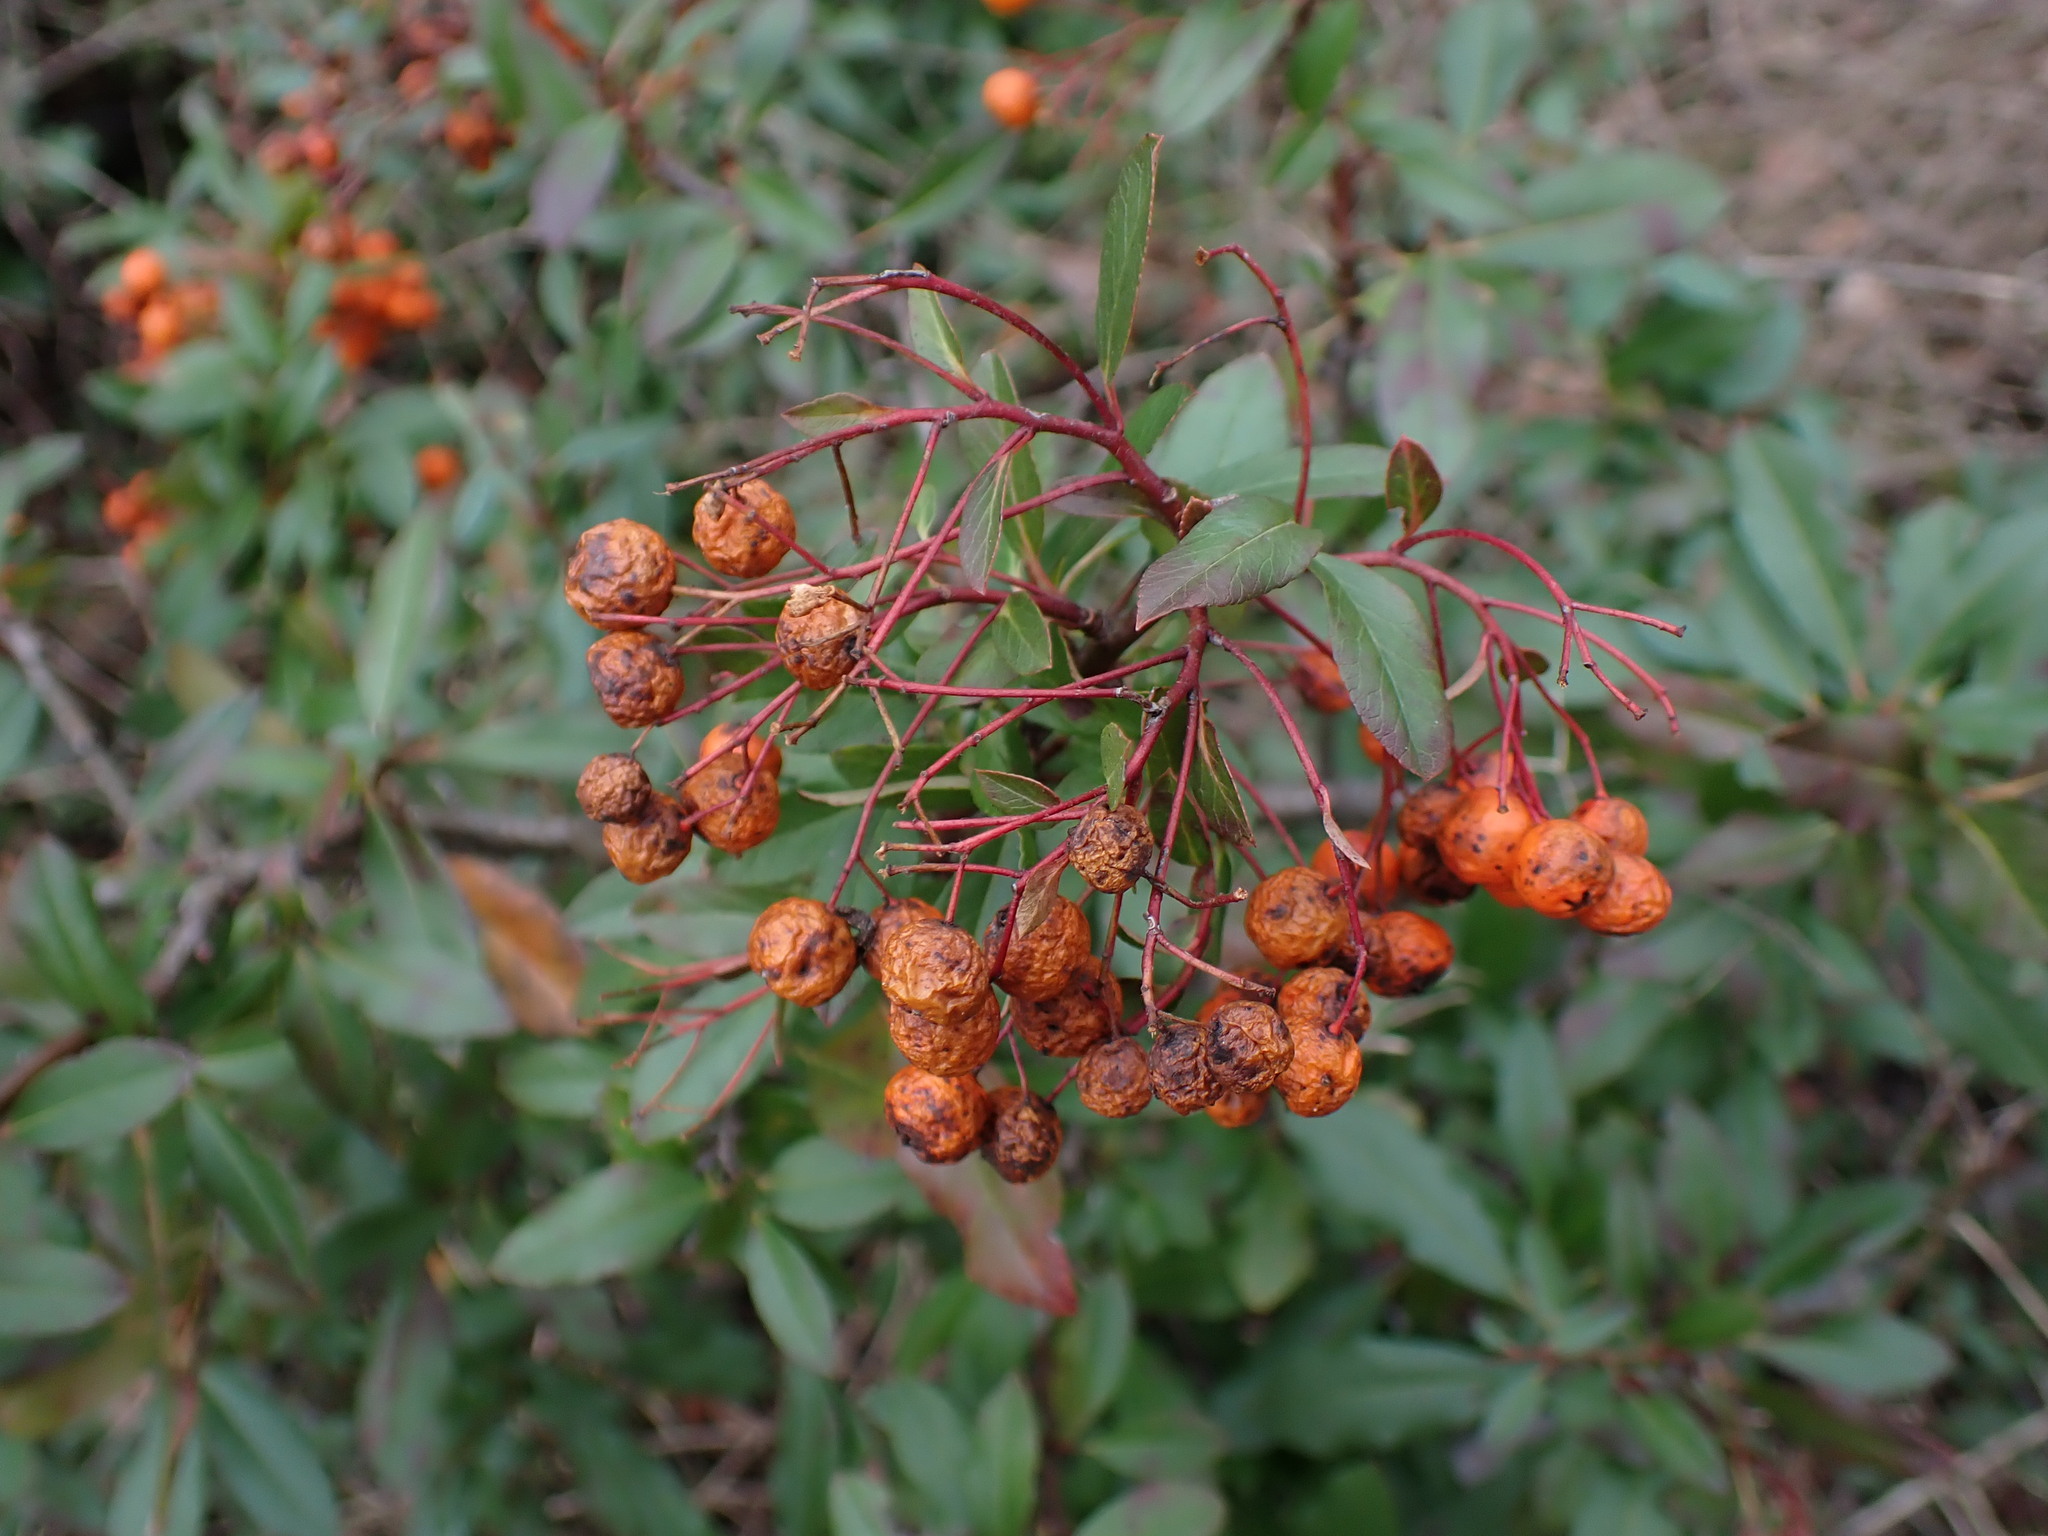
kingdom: Plantae
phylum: Tracheophyta
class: Magnoliopsida
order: Rosales
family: Rosaceae
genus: Pyracantha
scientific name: Pyracantha coccinea
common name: Firethorn
